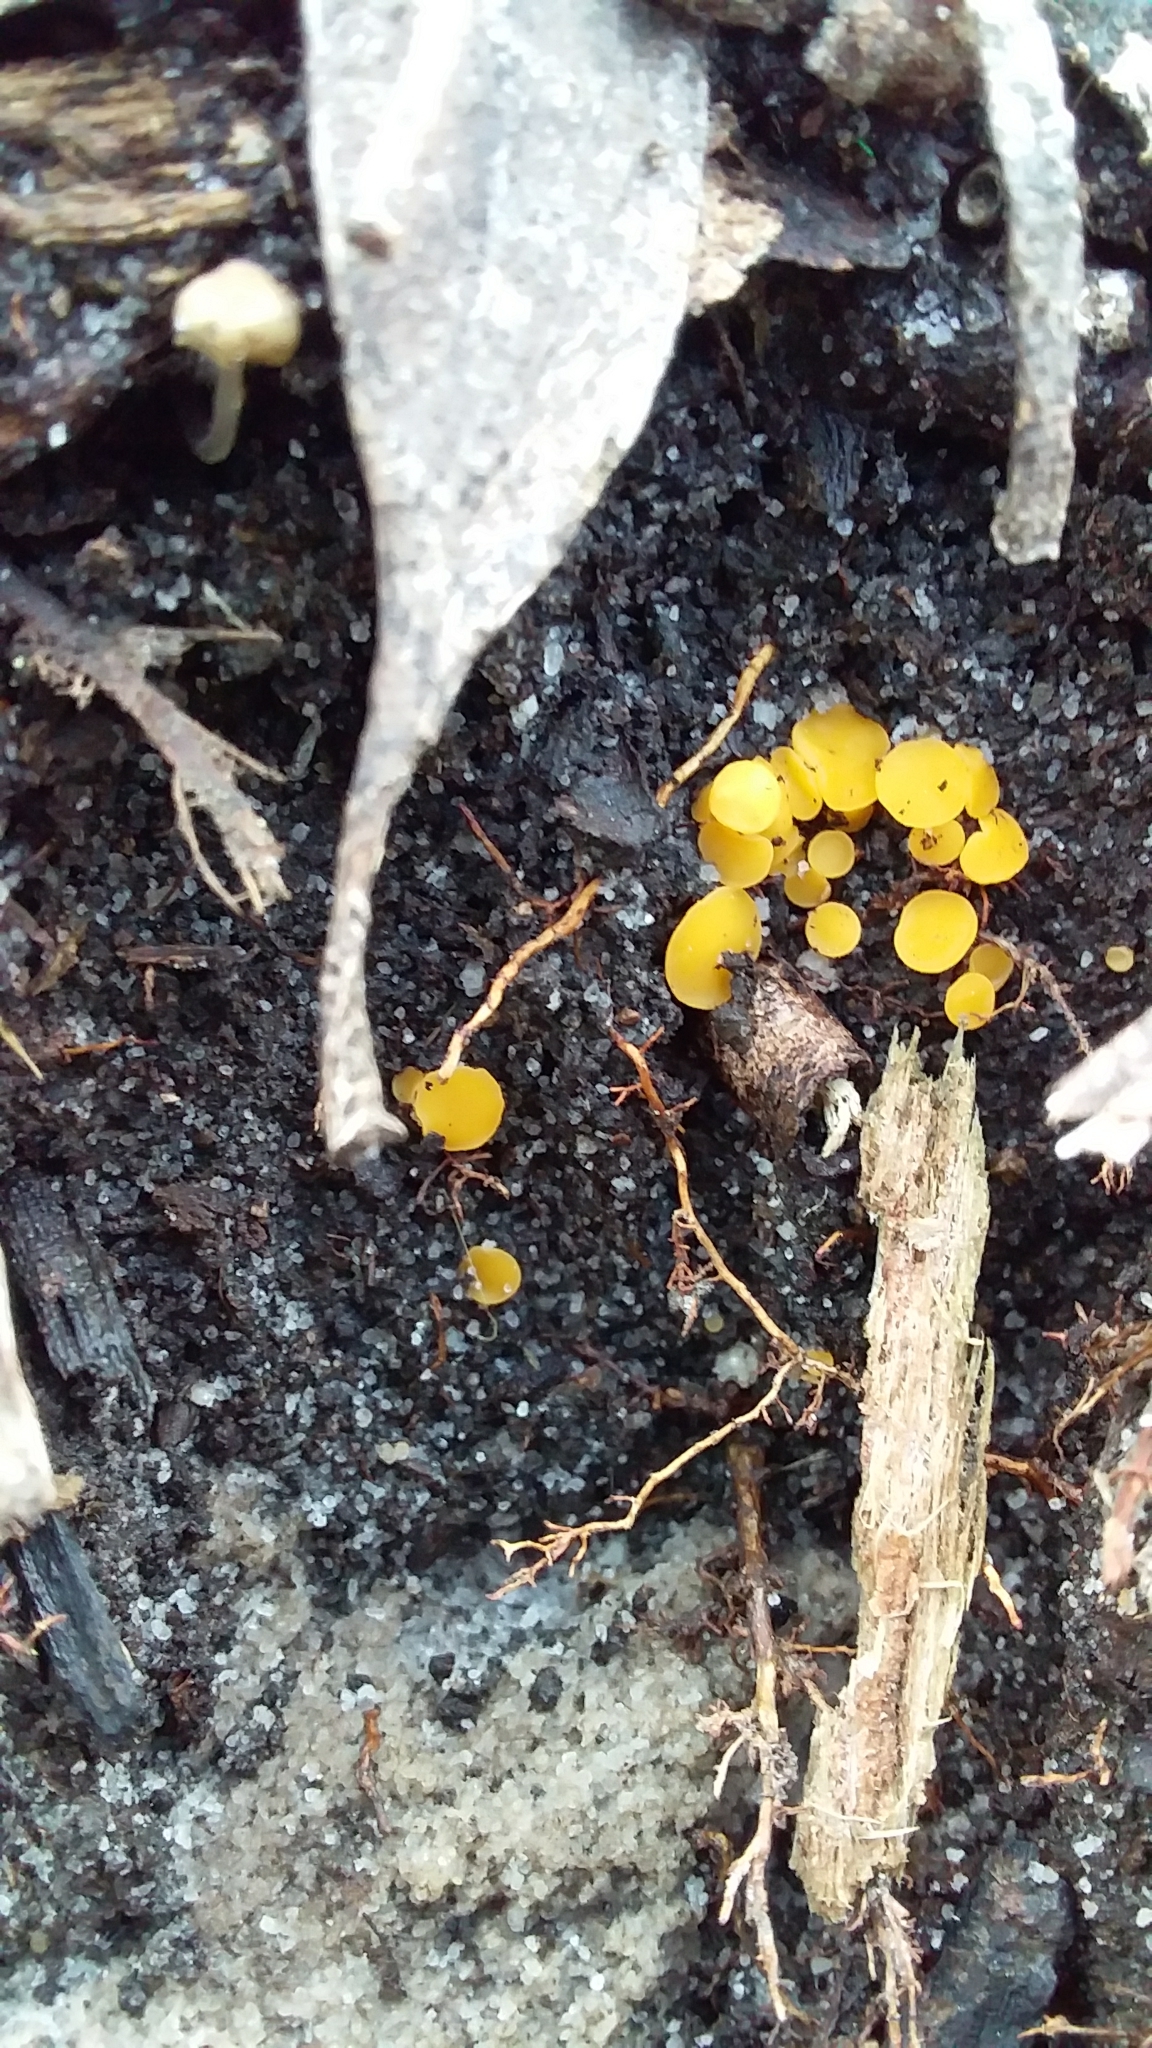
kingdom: Fungi
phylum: Ascomycota
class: Leotiomycetes
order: Helotiales
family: Helotiaceae
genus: Phaeohelotium
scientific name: Phaeohelotium baileyanum
